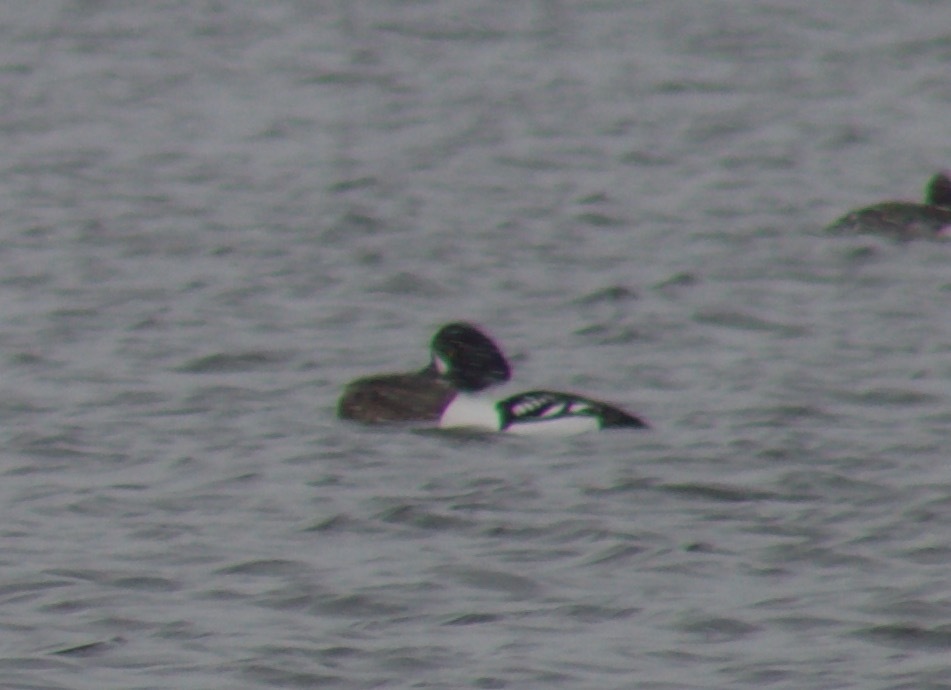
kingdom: Animalia
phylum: Chordata
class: Aves
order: Anseriformes
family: Anatidae
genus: Bucephala
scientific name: Bucephala islandica
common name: Barrow's goldeneye
